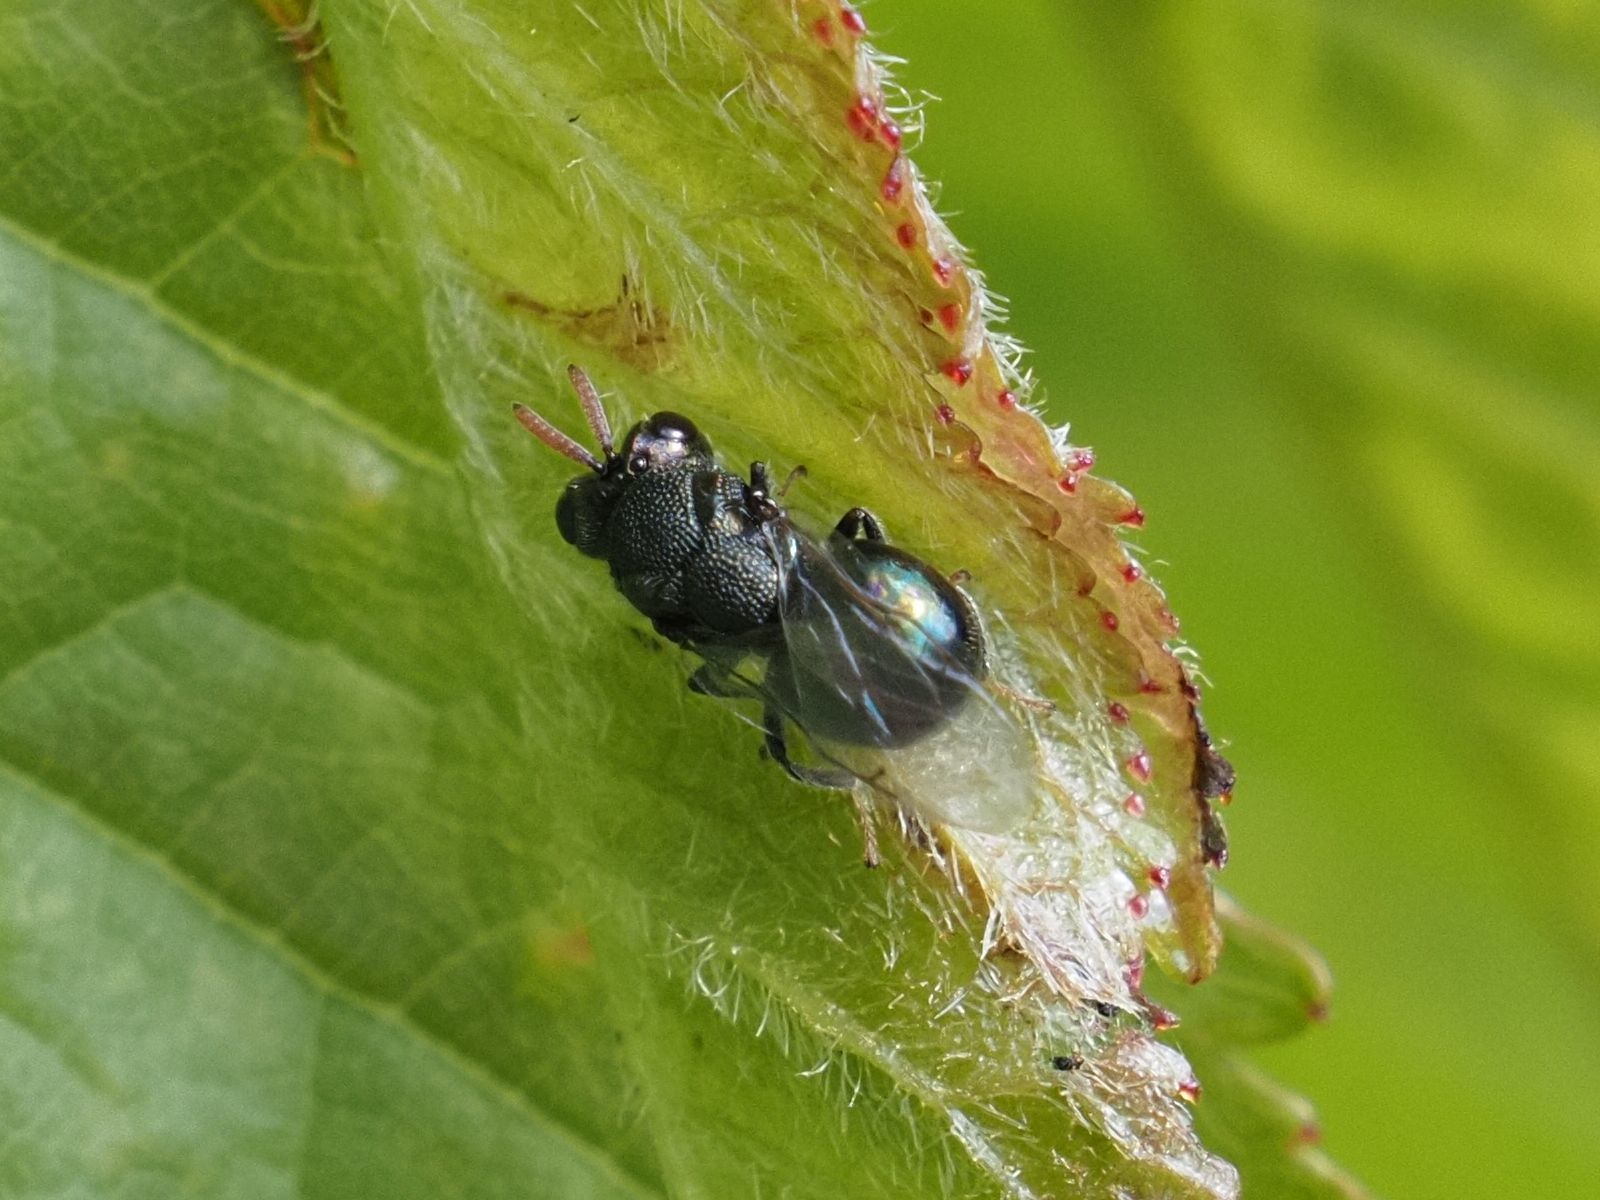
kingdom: Animalia
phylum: Arthropoda
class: Insecta
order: Hymenoptera
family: Perilampidae
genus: Perilampus
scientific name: Perilampus ruficornis
